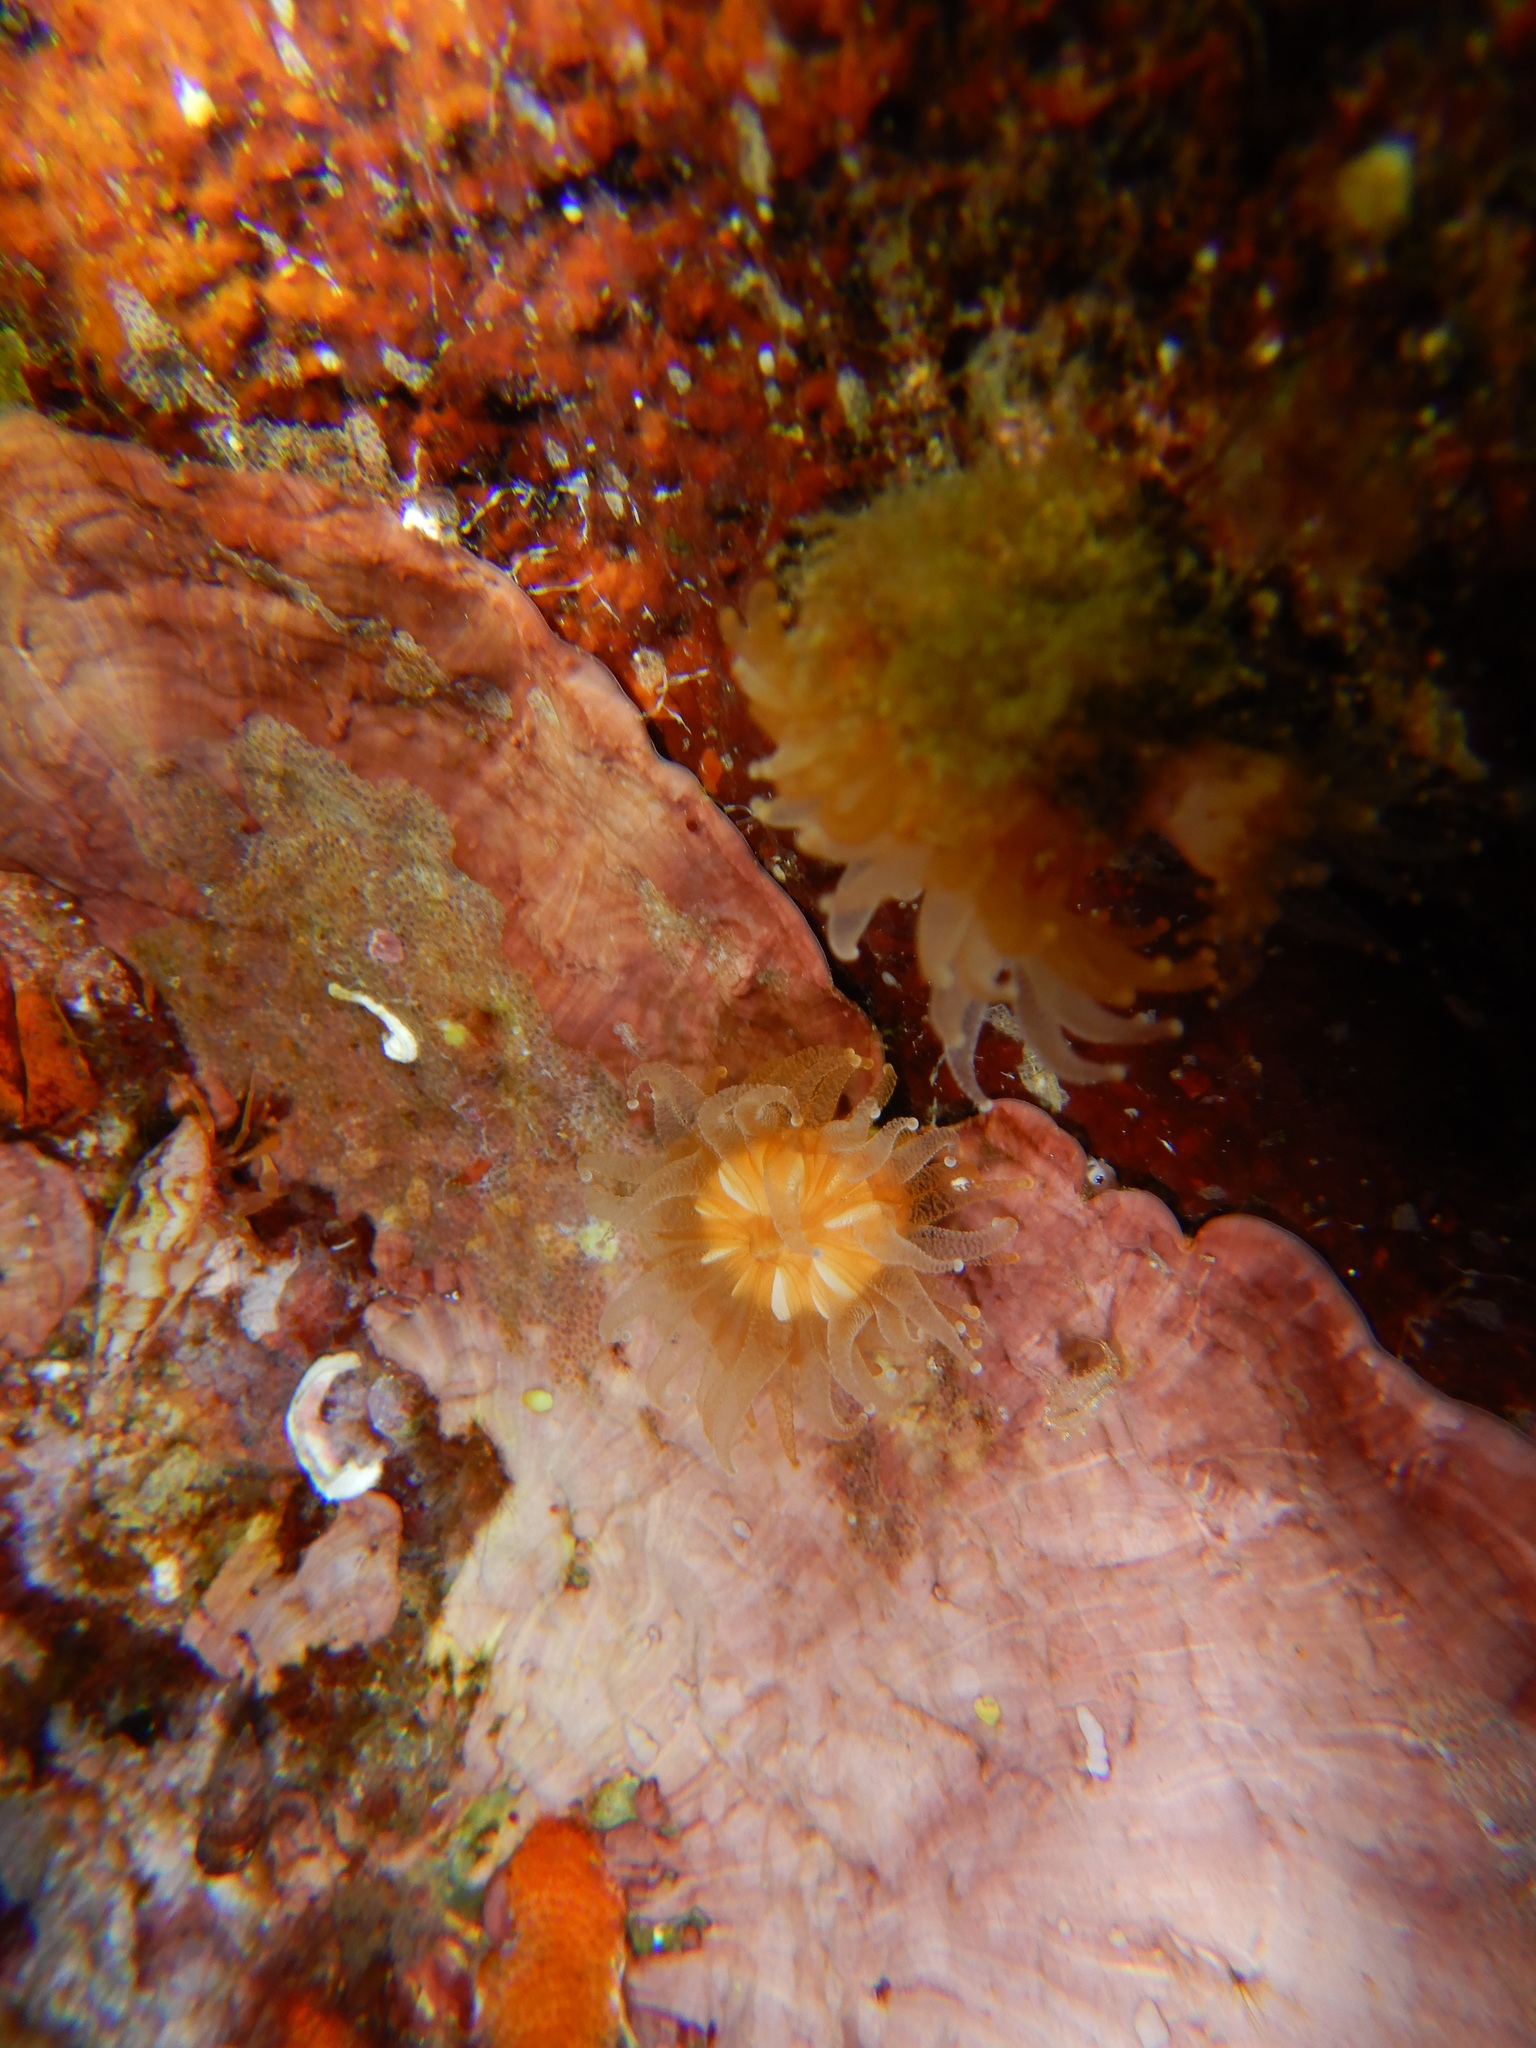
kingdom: Animalia
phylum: Cnidaria
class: Anthozoa
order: Scleractinia
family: Caryophylliidae
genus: Caryophyllia
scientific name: Caryophyllia inornata
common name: Circular cupcoral
